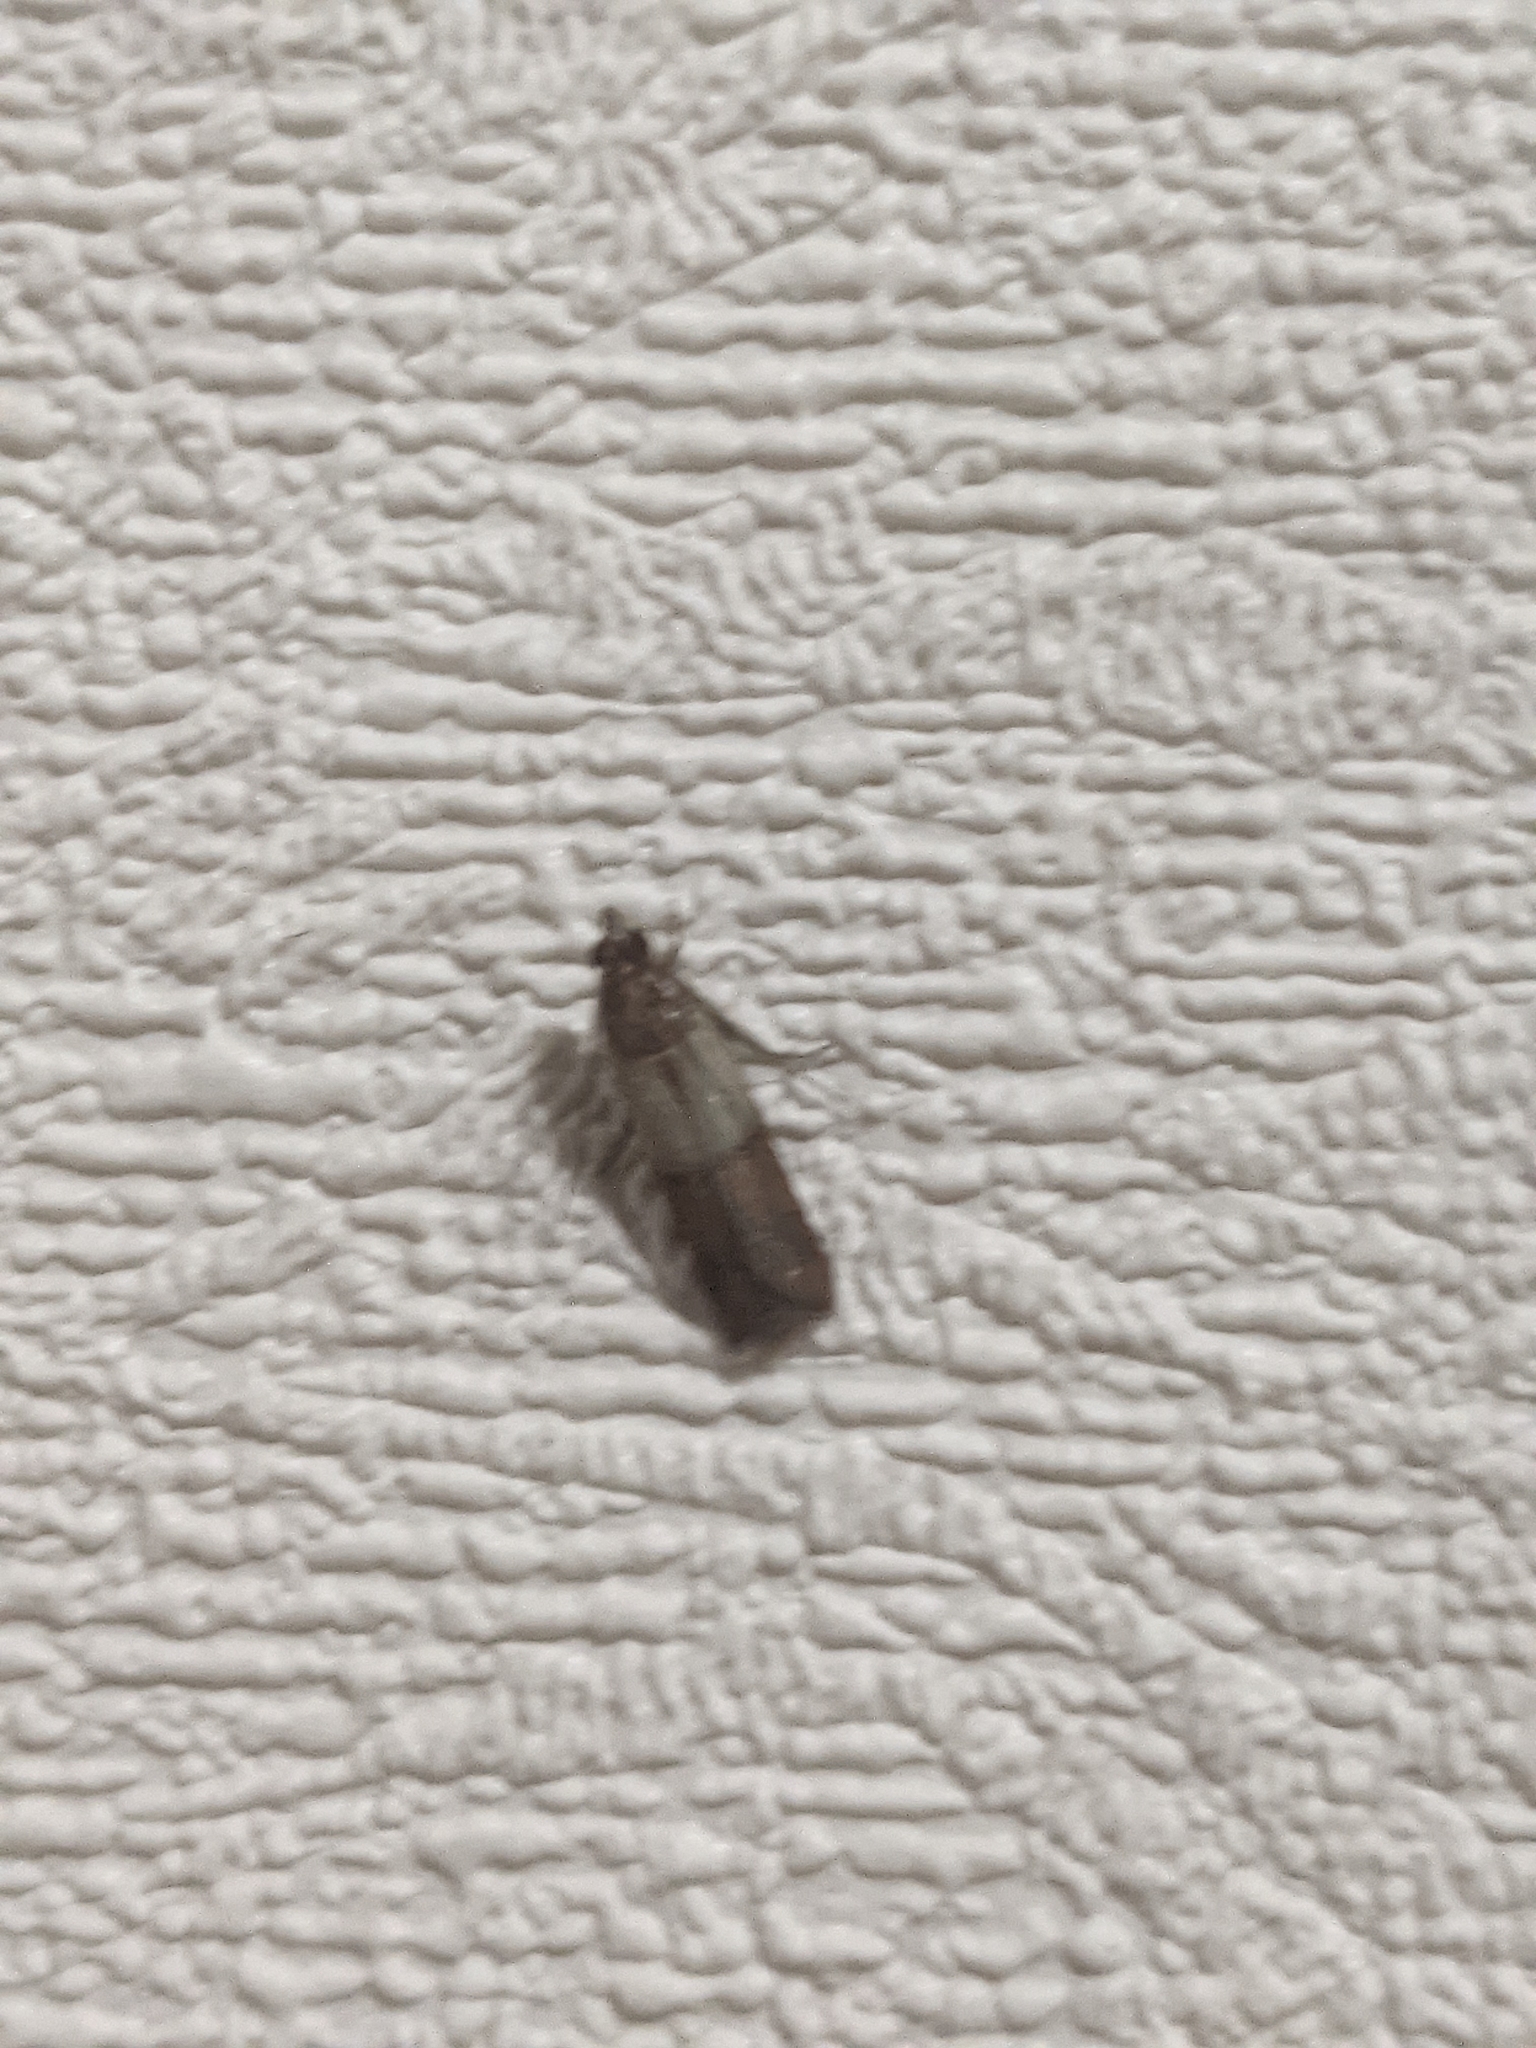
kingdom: Animalia
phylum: Arthropoda
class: Insecta
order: Lepidoptera
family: Pyralidae
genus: Plodia
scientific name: Plodia interpunctella
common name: Indian meal moth
